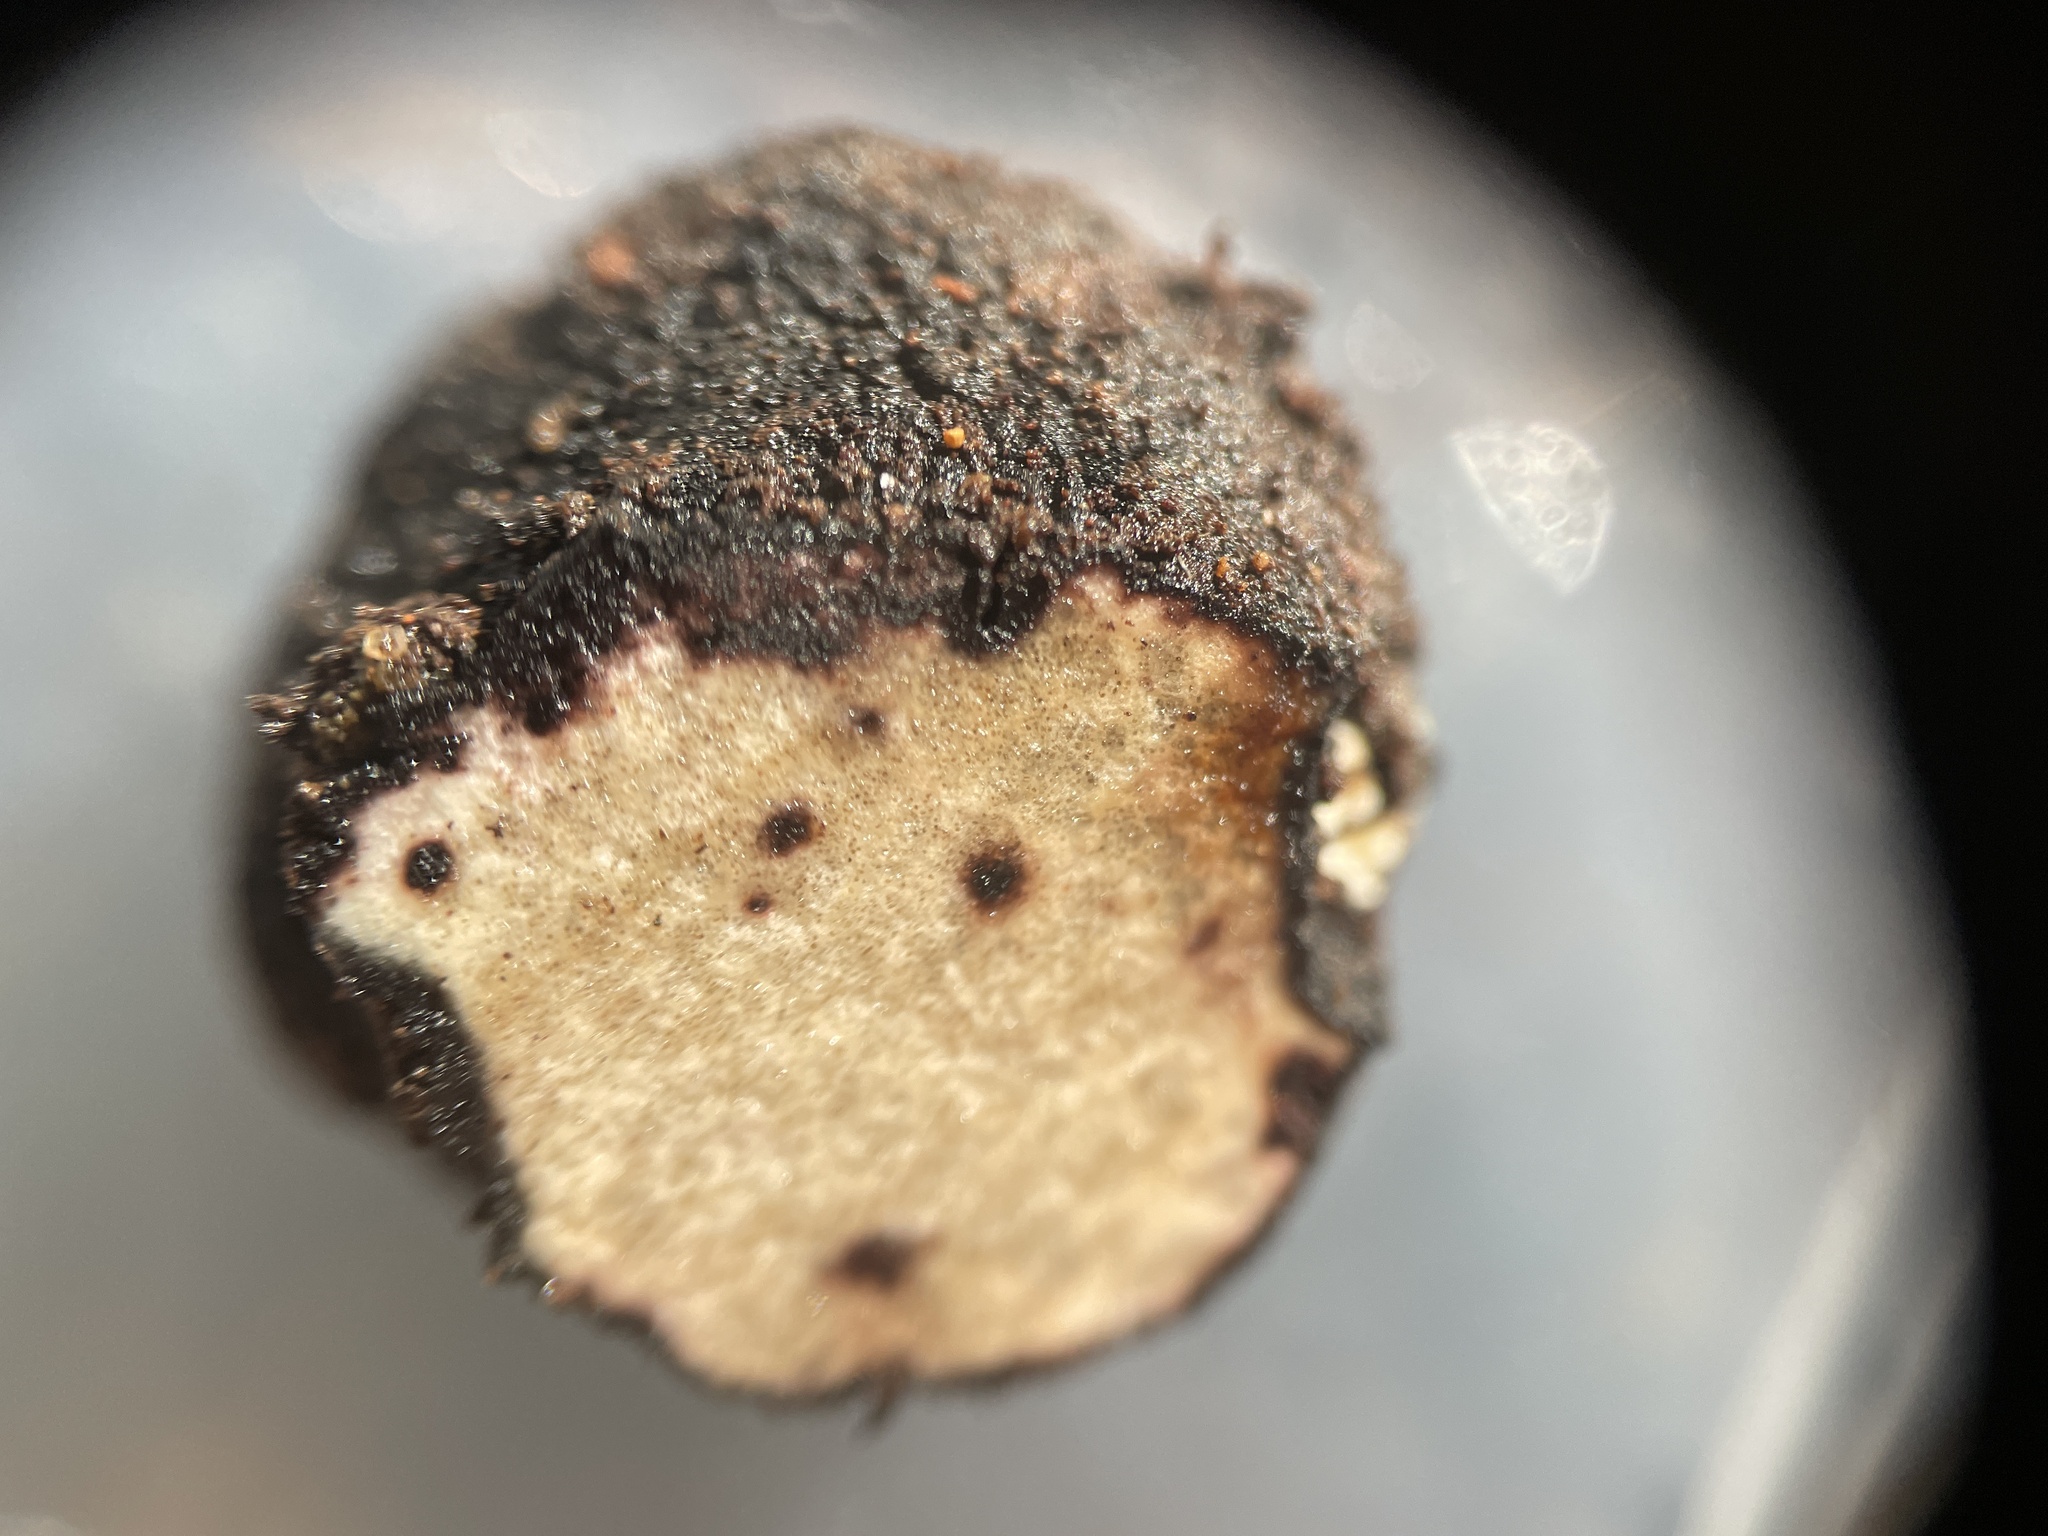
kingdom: Fungi
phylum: Ascomycota
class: Pezizomycetes
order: Pezizales
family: Morchellaceae
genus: Leucangium
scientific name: Leucangium carthusianum
